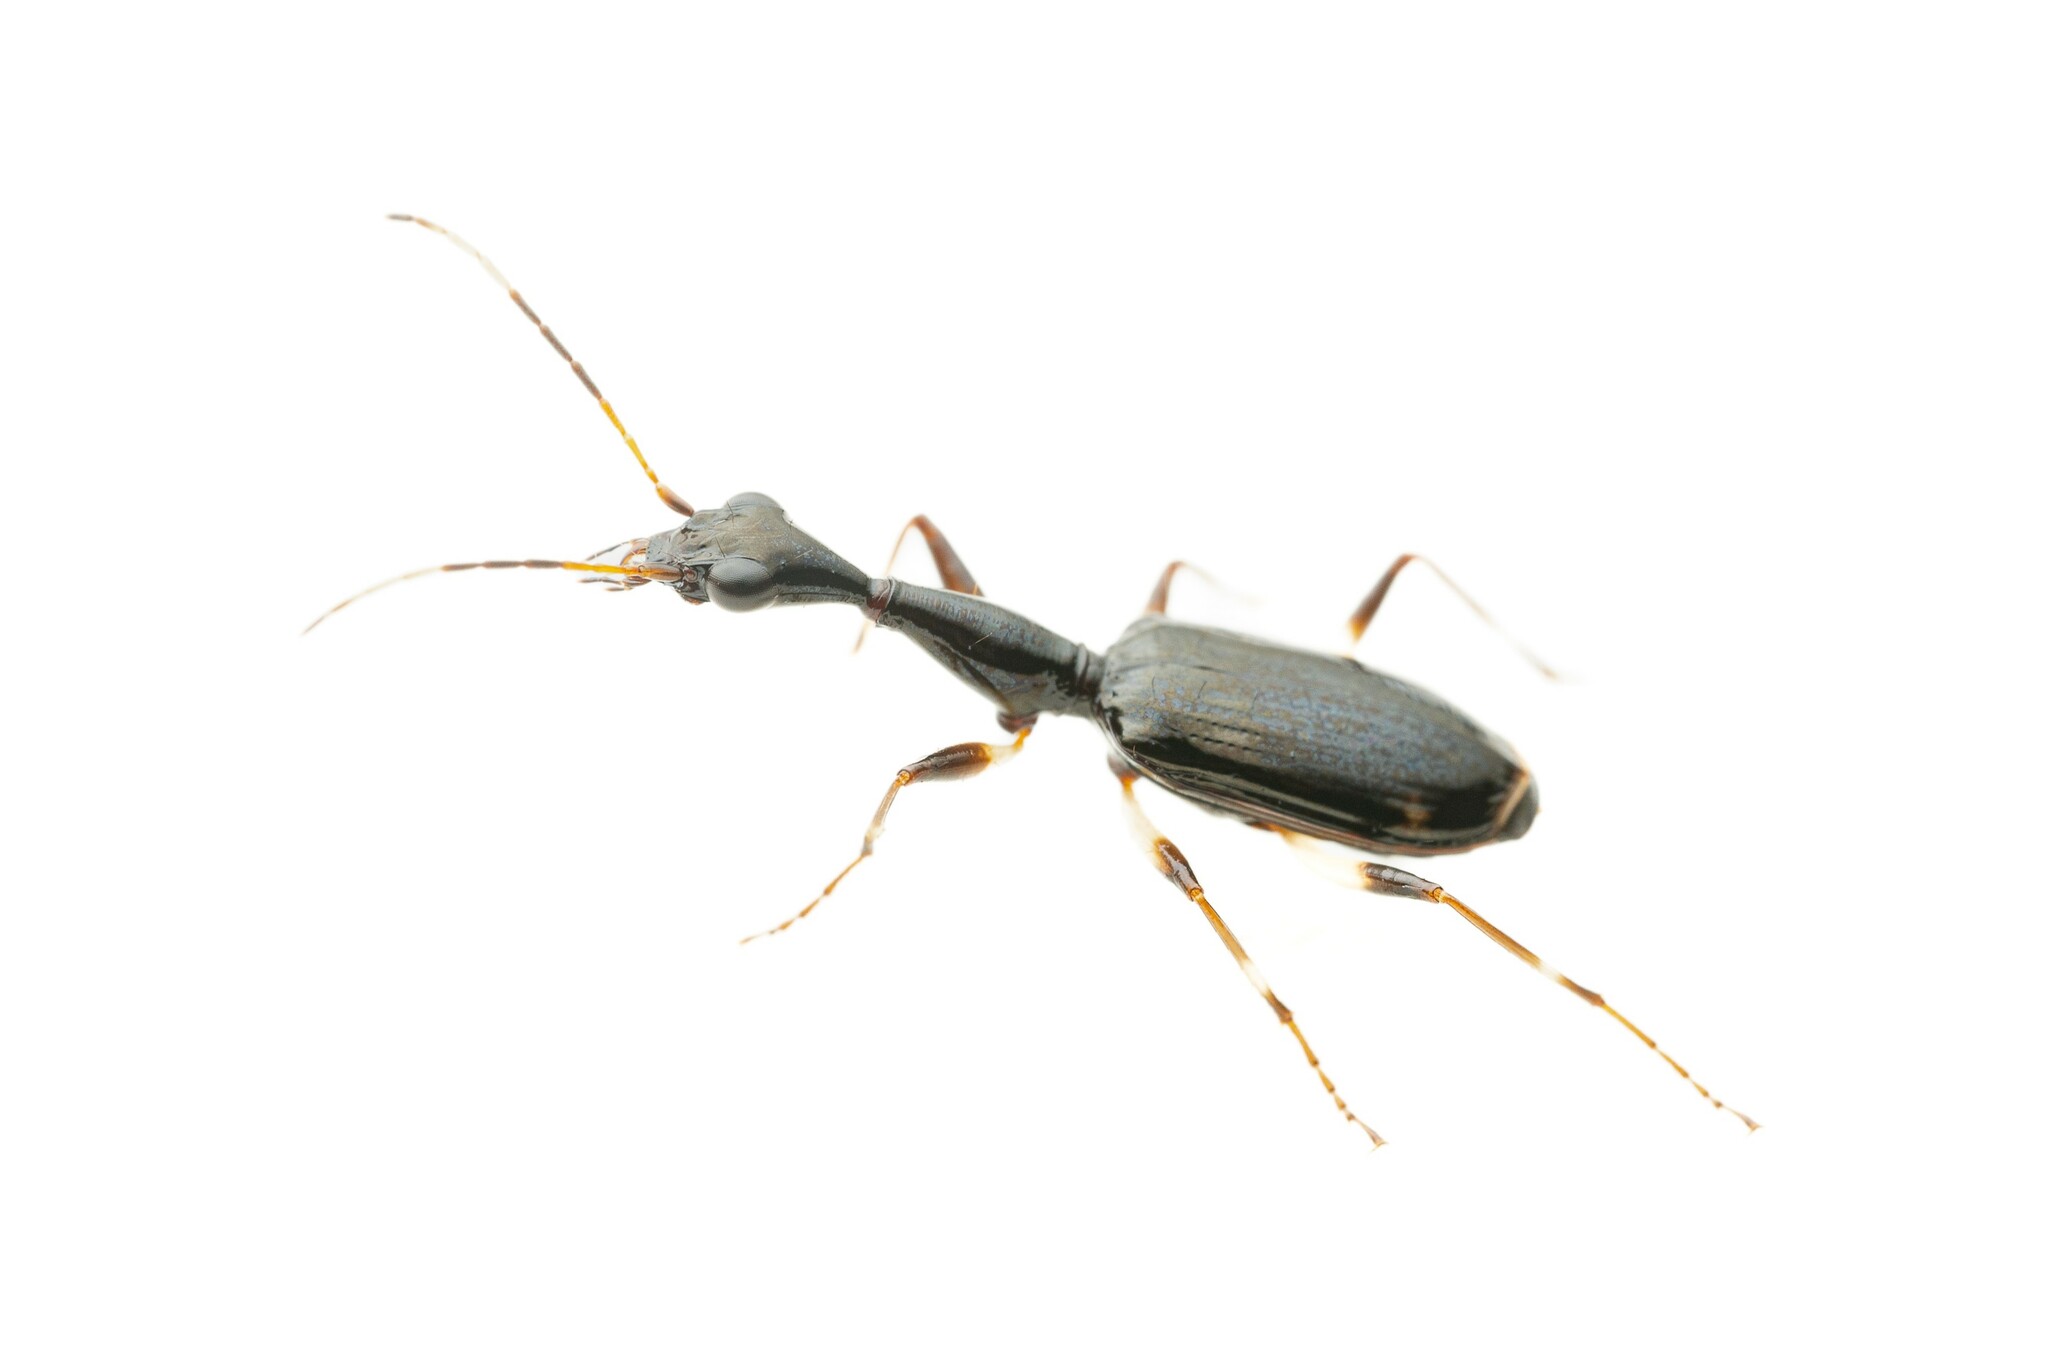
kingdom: Animalia
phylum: Arthropoda
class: Insecta
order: Coleoptera
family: Carabidae
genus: Colliuris
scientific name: Colliuris lioptera
